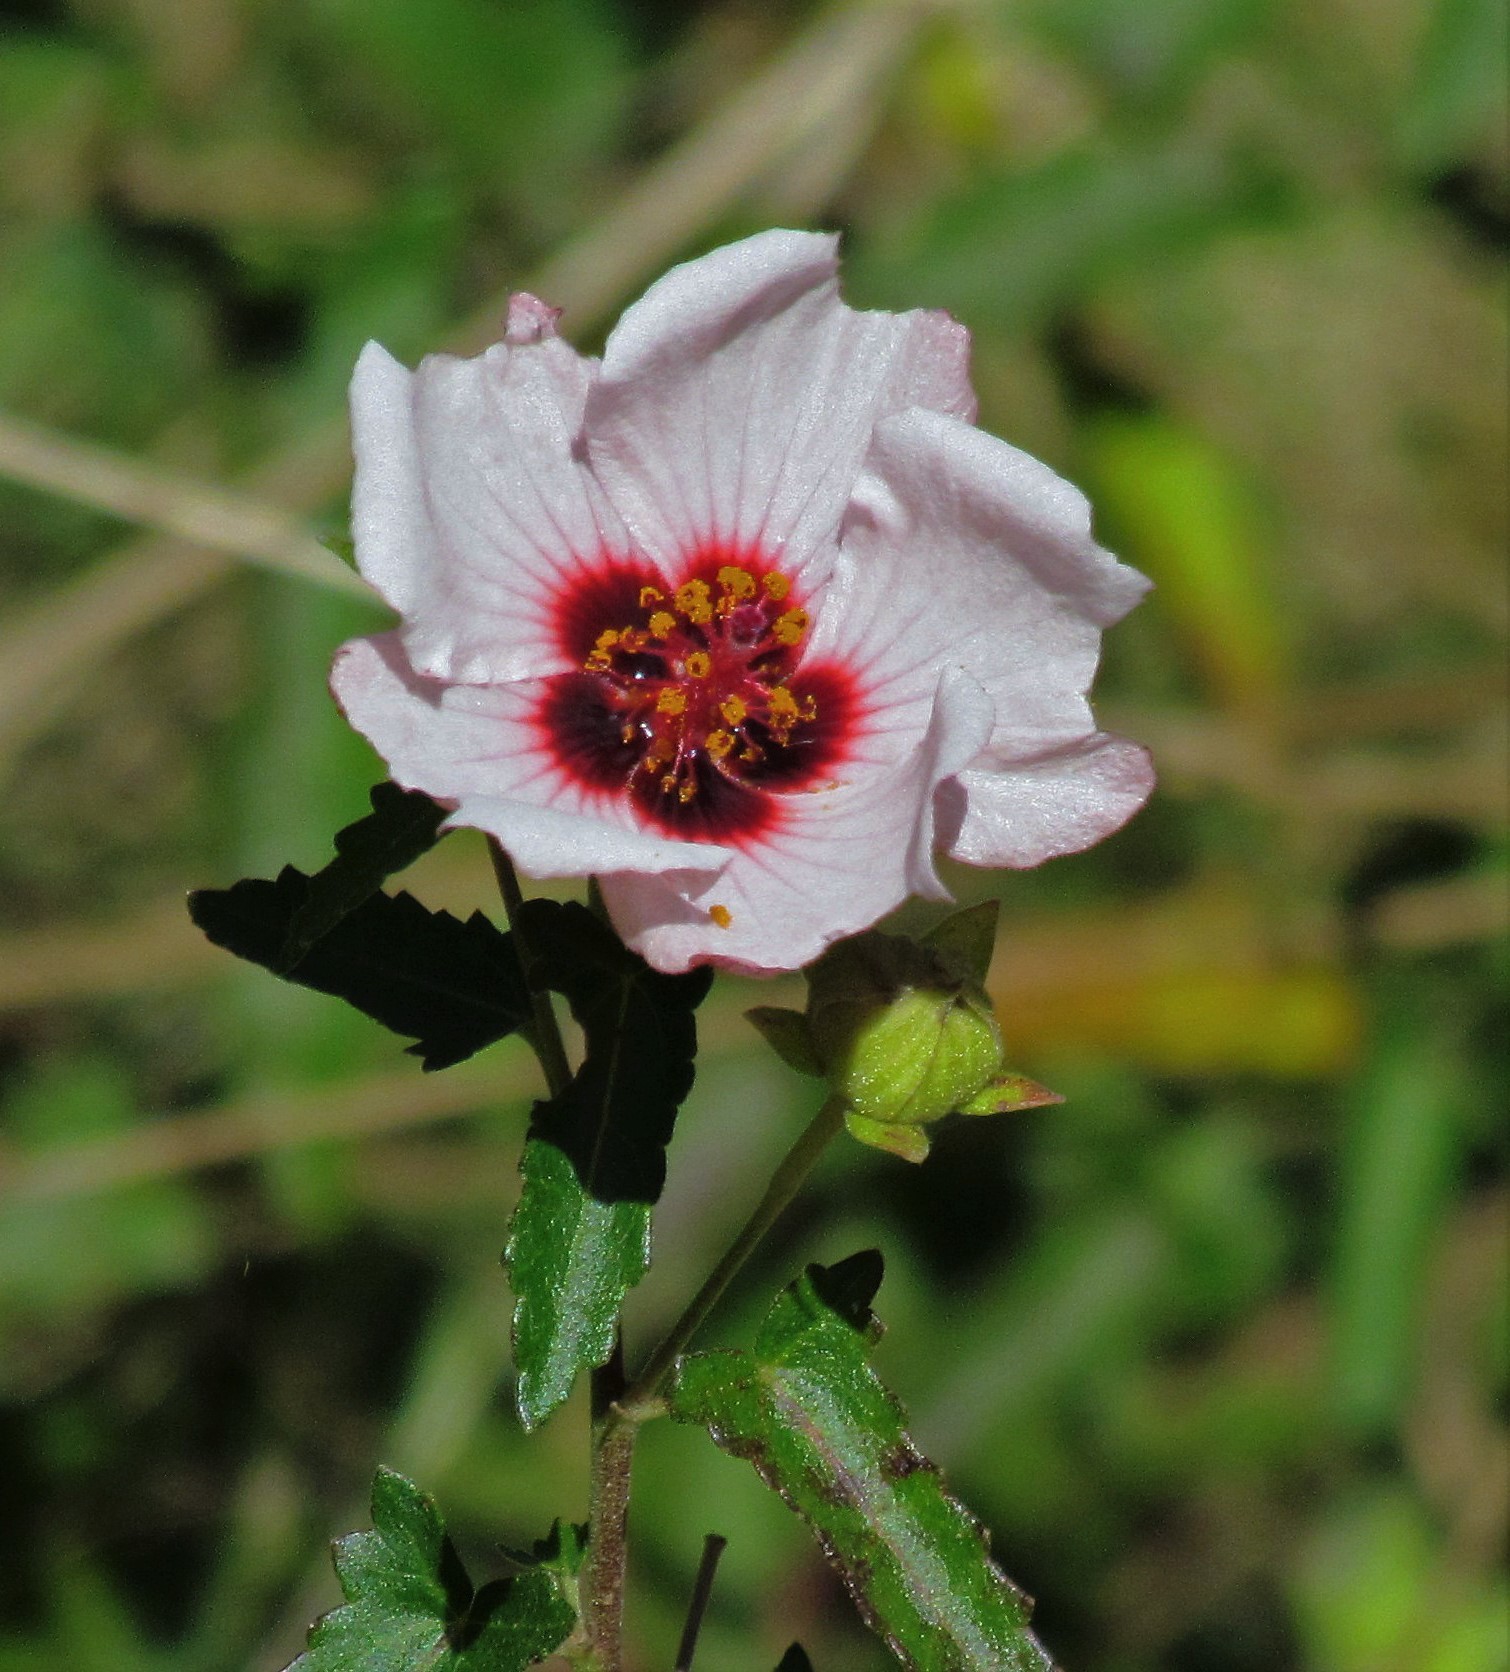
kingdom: Plantae
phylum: Tracheophyta
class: Magnoliopsida
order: Malvales
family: Malvaceae
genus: Pavonia
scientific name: Pavonia hastata
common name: Spearleaf swampmallow
